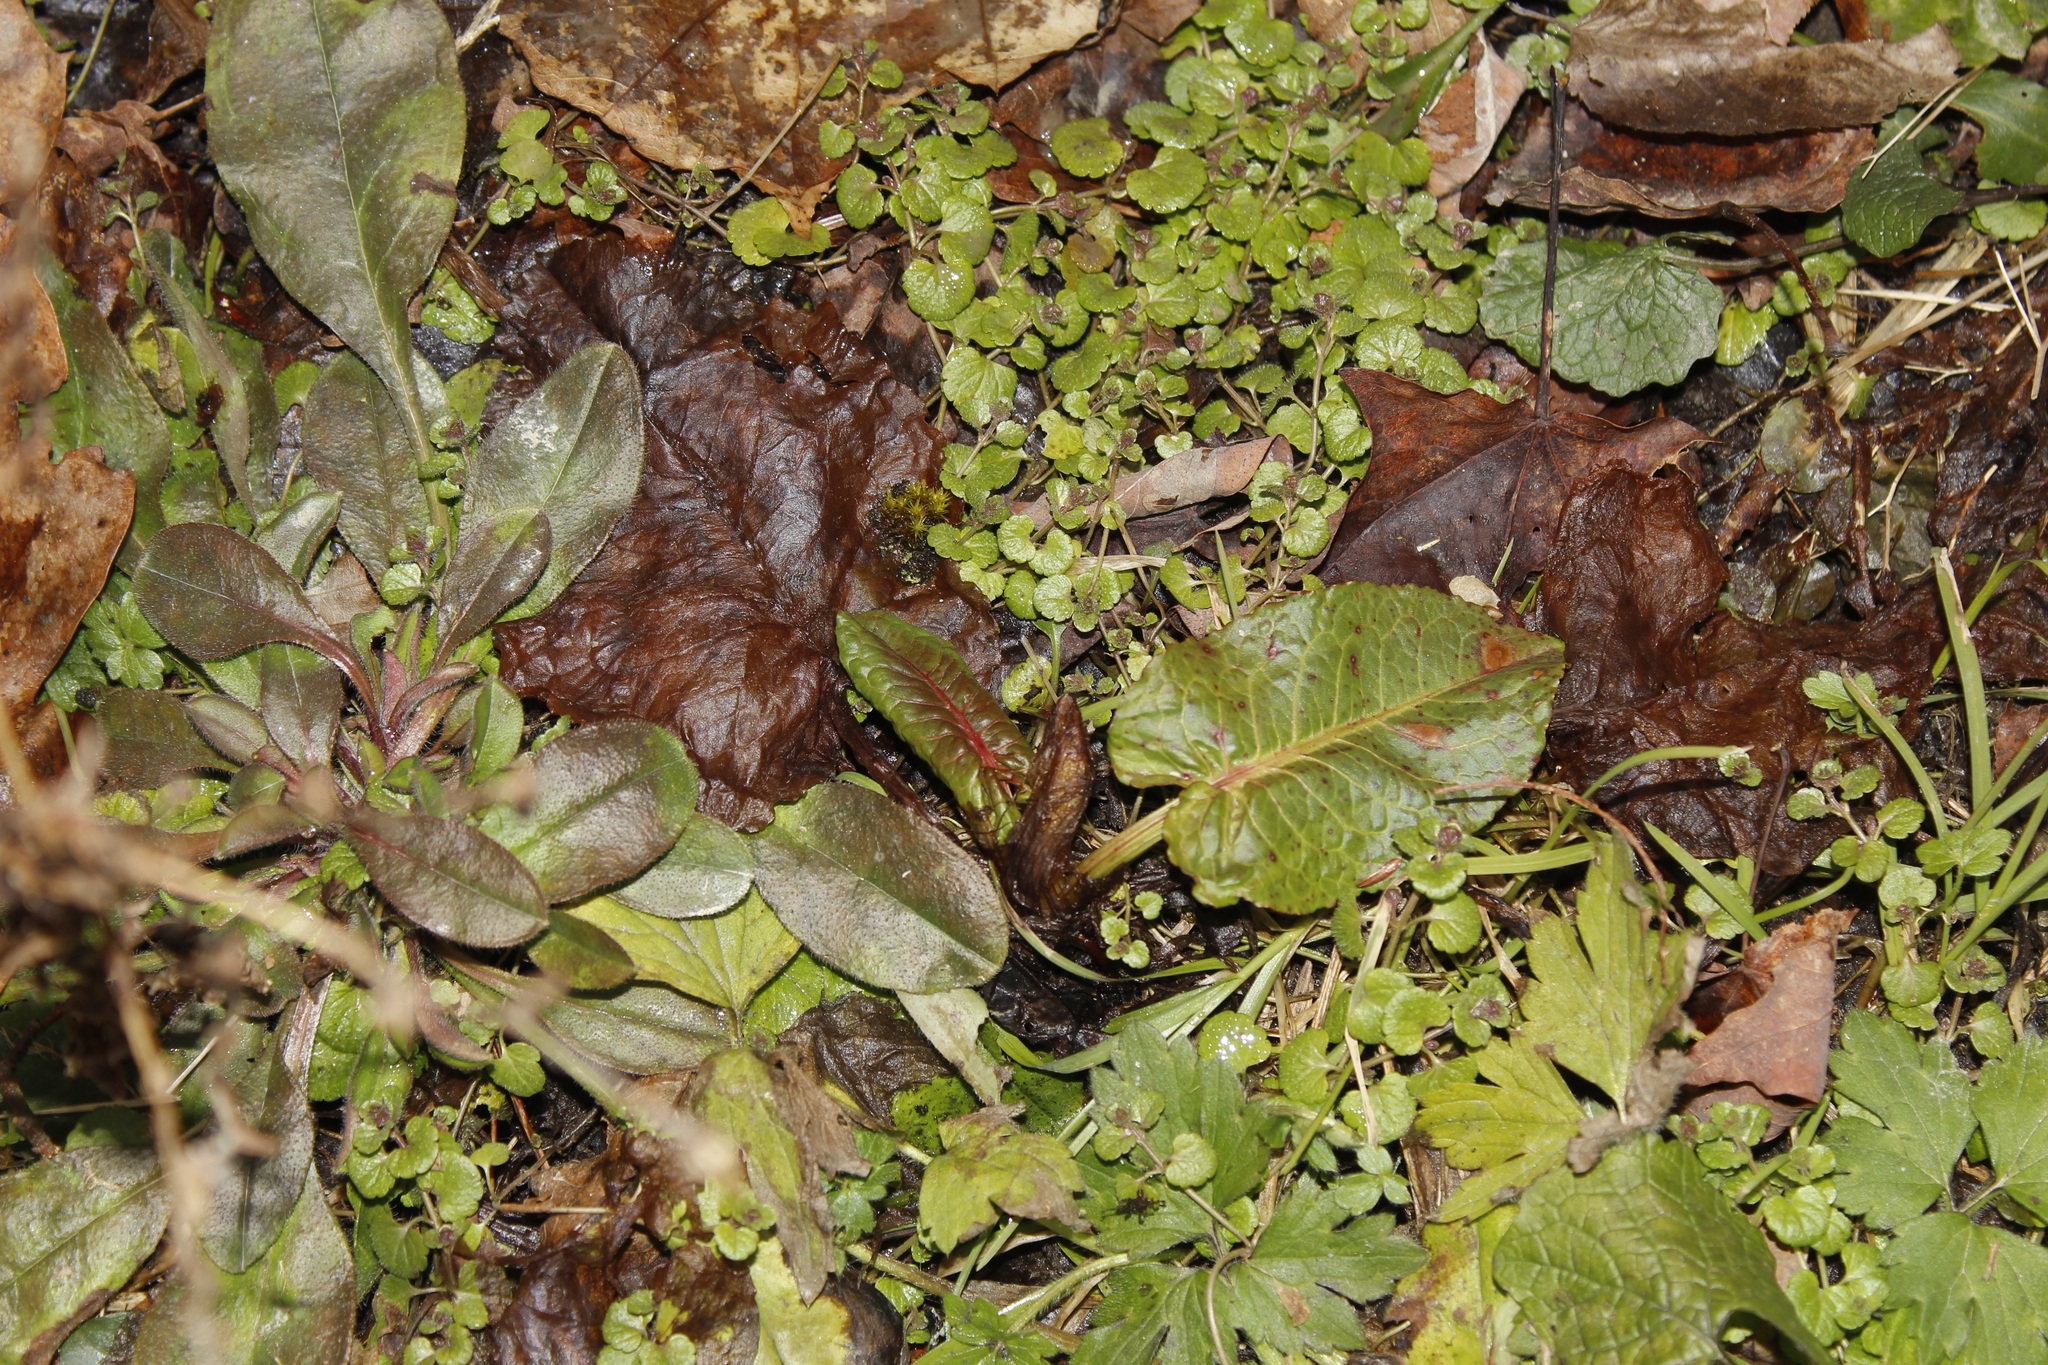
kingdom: Plantae
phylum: Tracheophyta
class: Magnoliopsida
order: Caryophyllales
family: Polygonaceae
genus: Rumex
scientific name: Rumex obtusifolius
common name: Bitter dock
